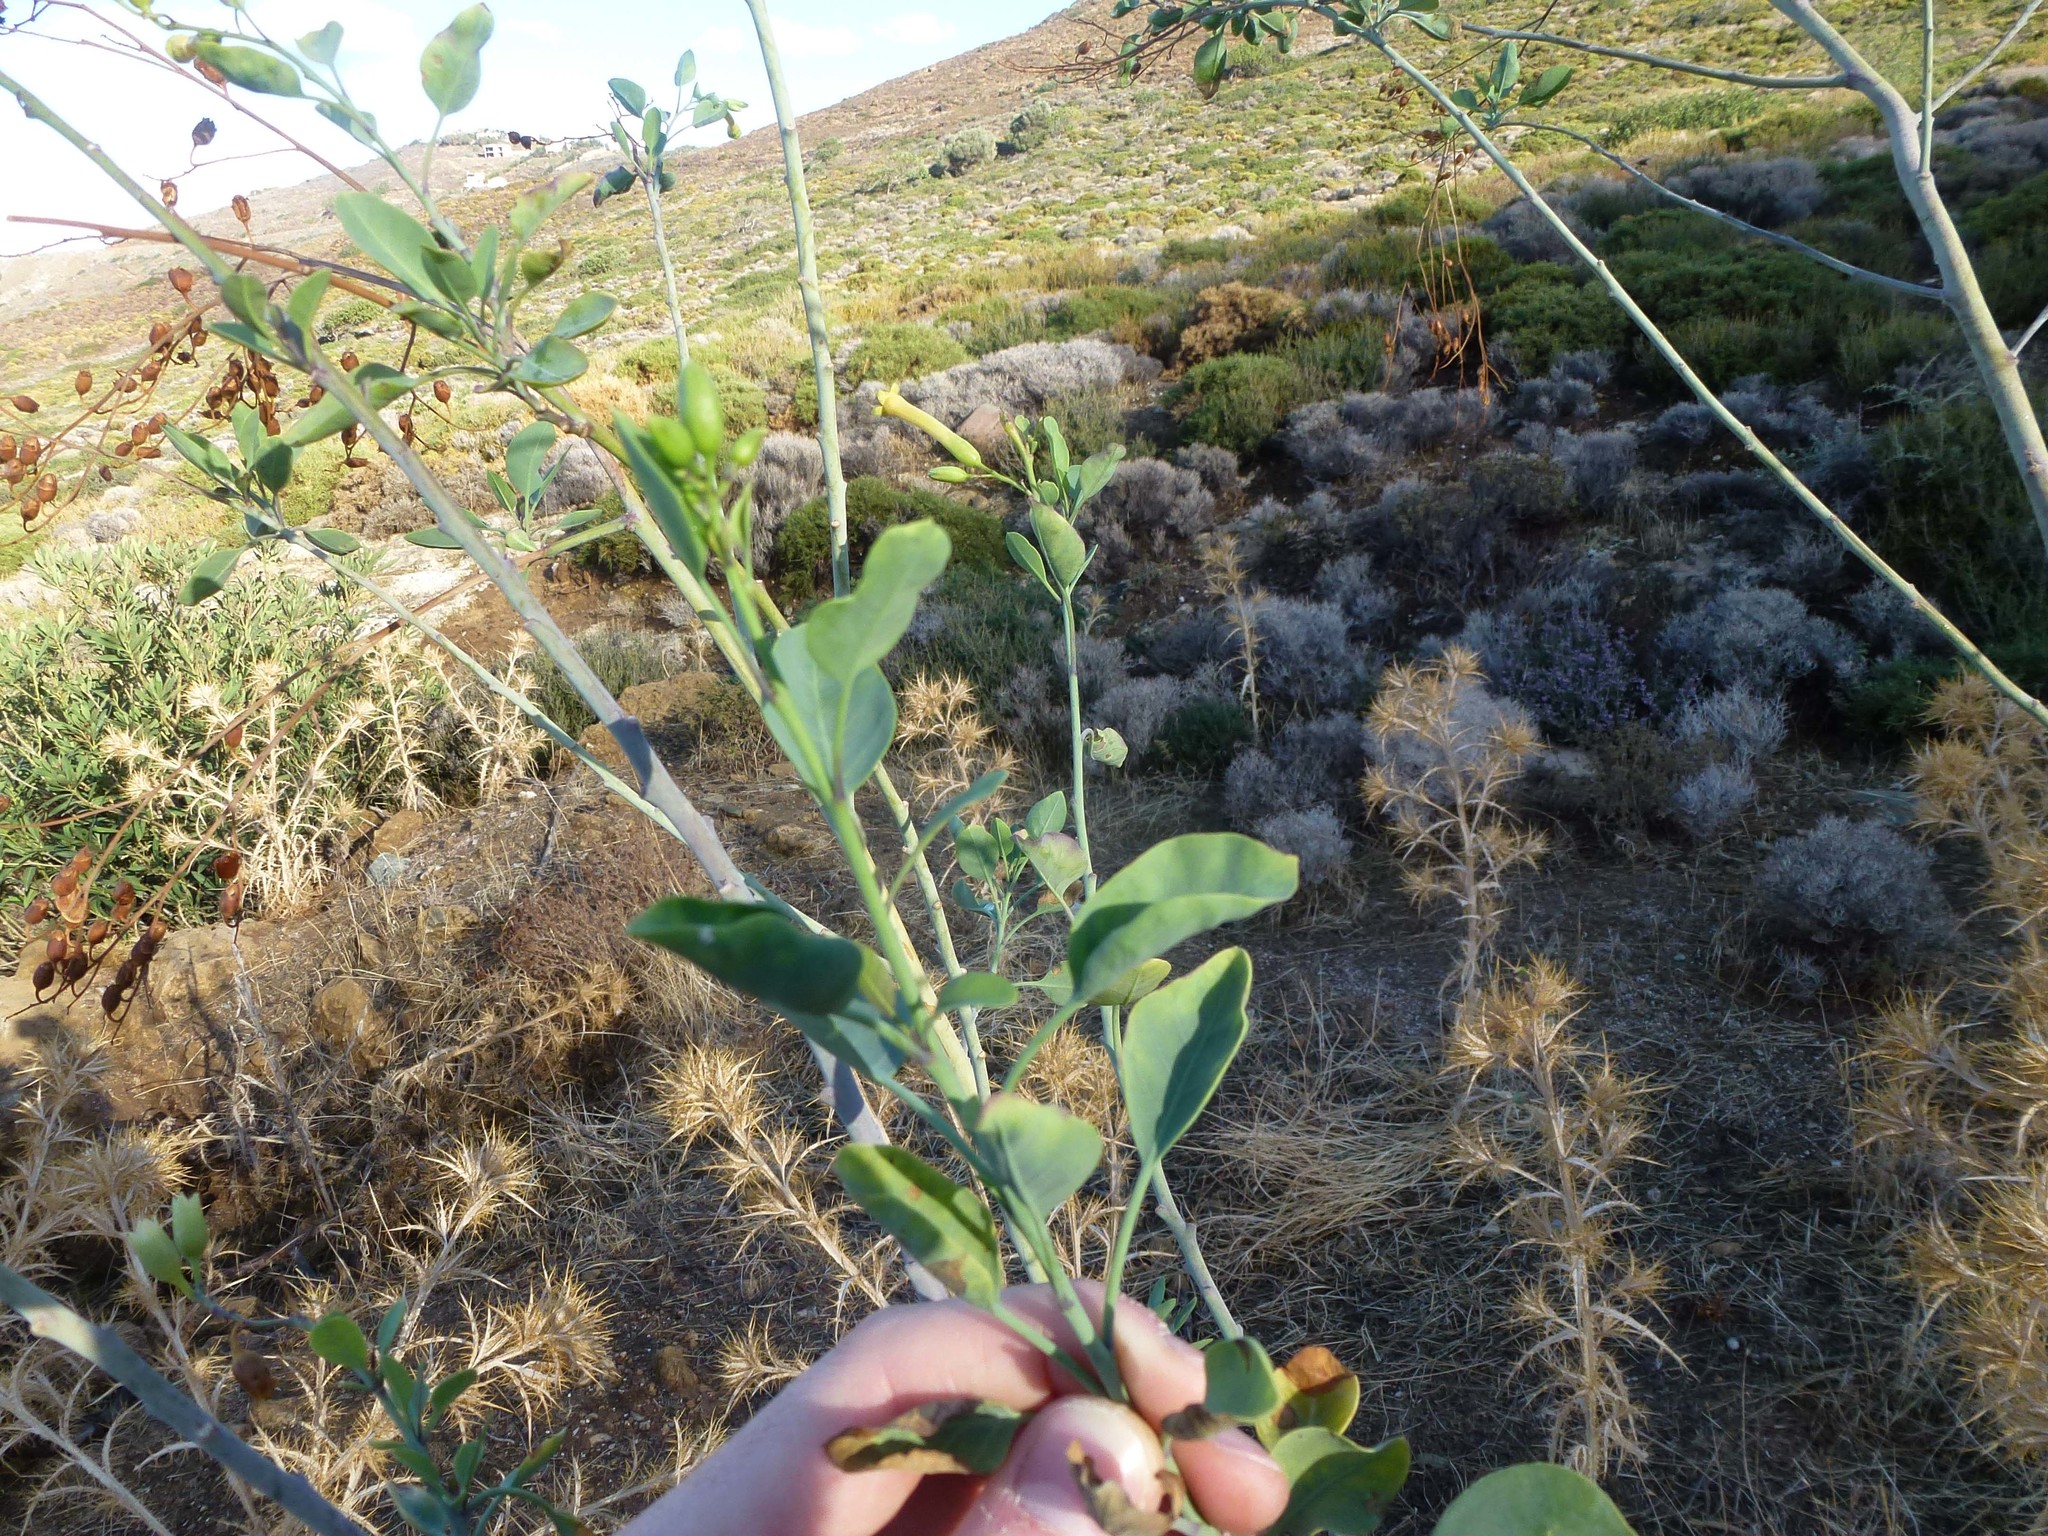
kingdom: Plantae
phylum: Tracheophyta
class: Magnoliopsida
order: Solanales
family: Solanaceae
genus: Nicotiana
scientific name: Nicotiana glauca
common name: Tree tobacco
